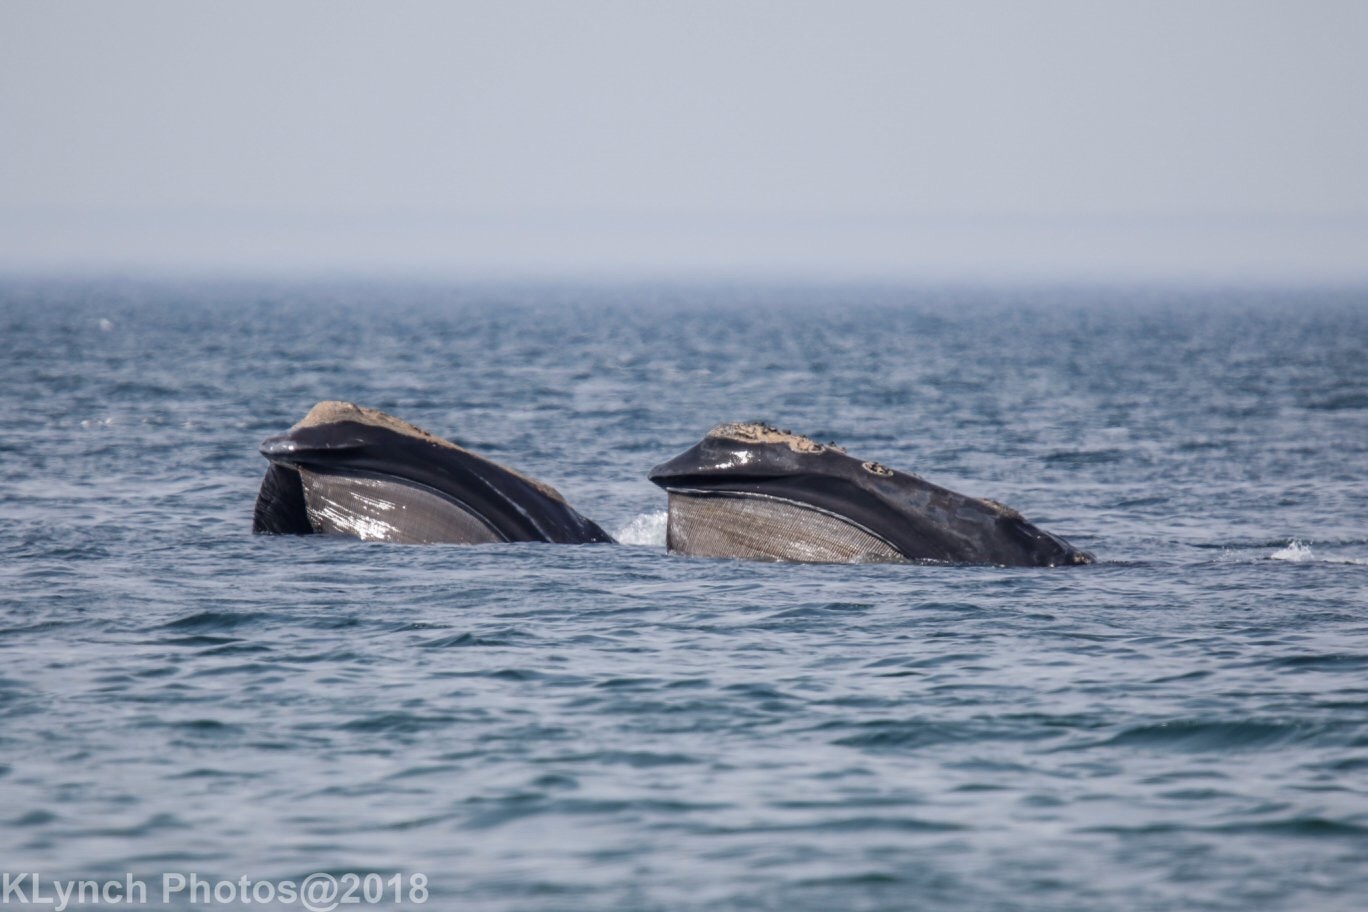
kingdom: Animalia
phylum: Chordata
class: Mammalia
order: Cetacea
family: Balaenidae
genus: Eubalaena
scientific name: Eubalaena glacialis
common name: North atlantic right whale
